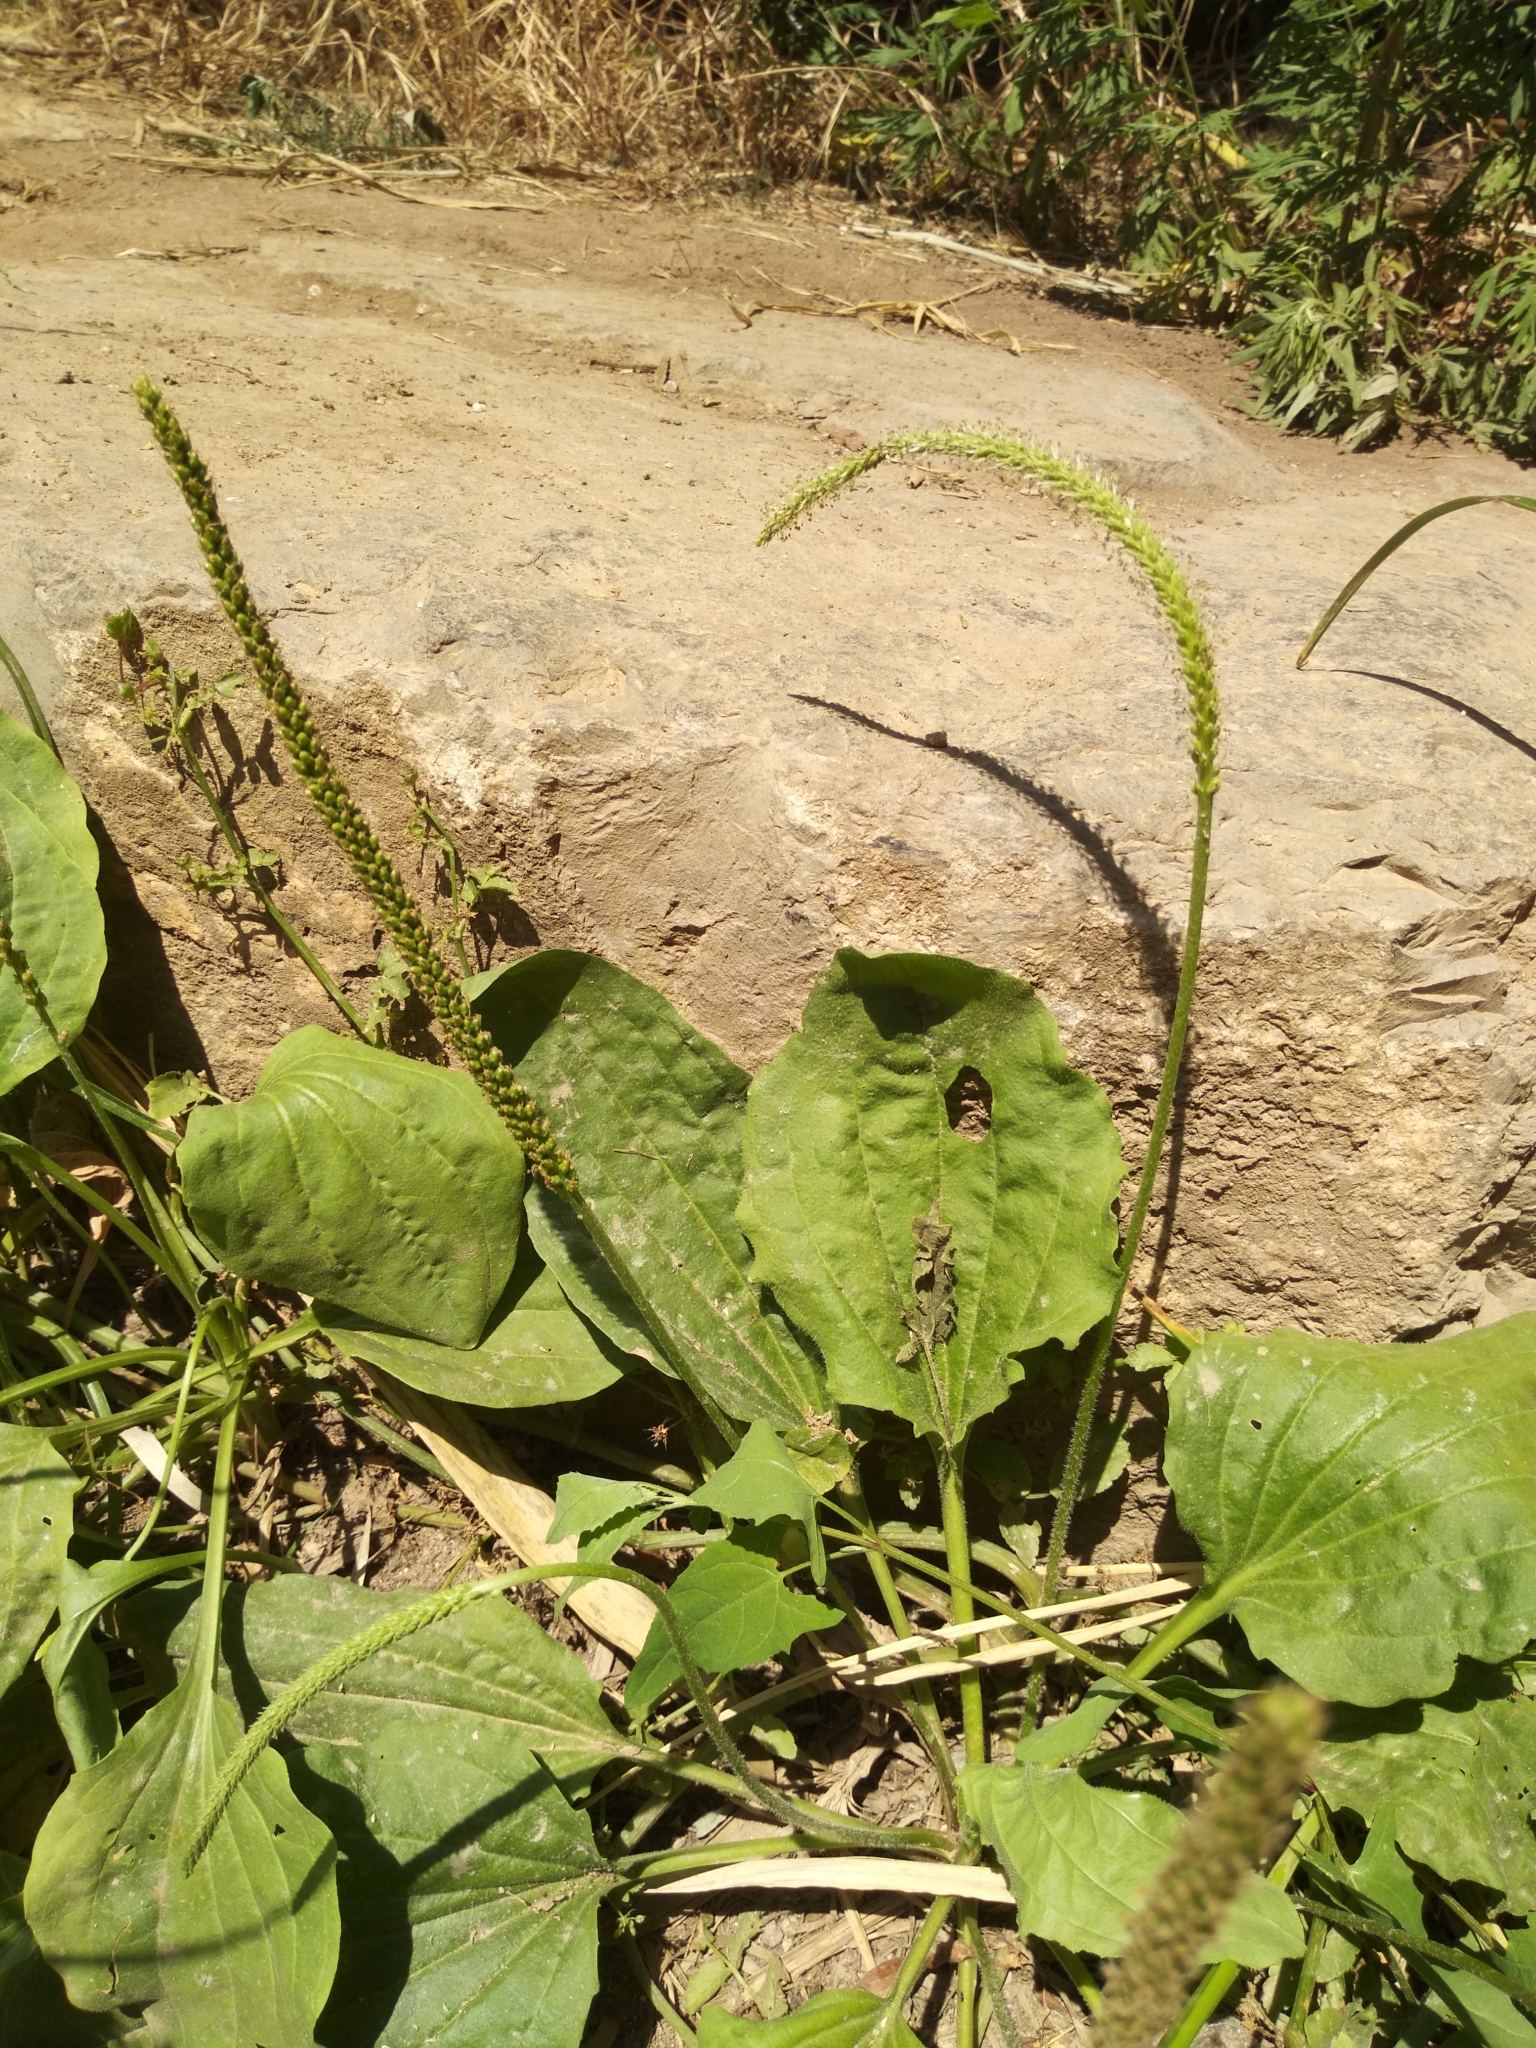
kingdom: Plantae
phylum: Tracheophyta
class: Magnoliopsida
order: Lamiales
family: Plantaginaceae
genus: Plantago
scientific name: Plantago major
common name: Common plantain
